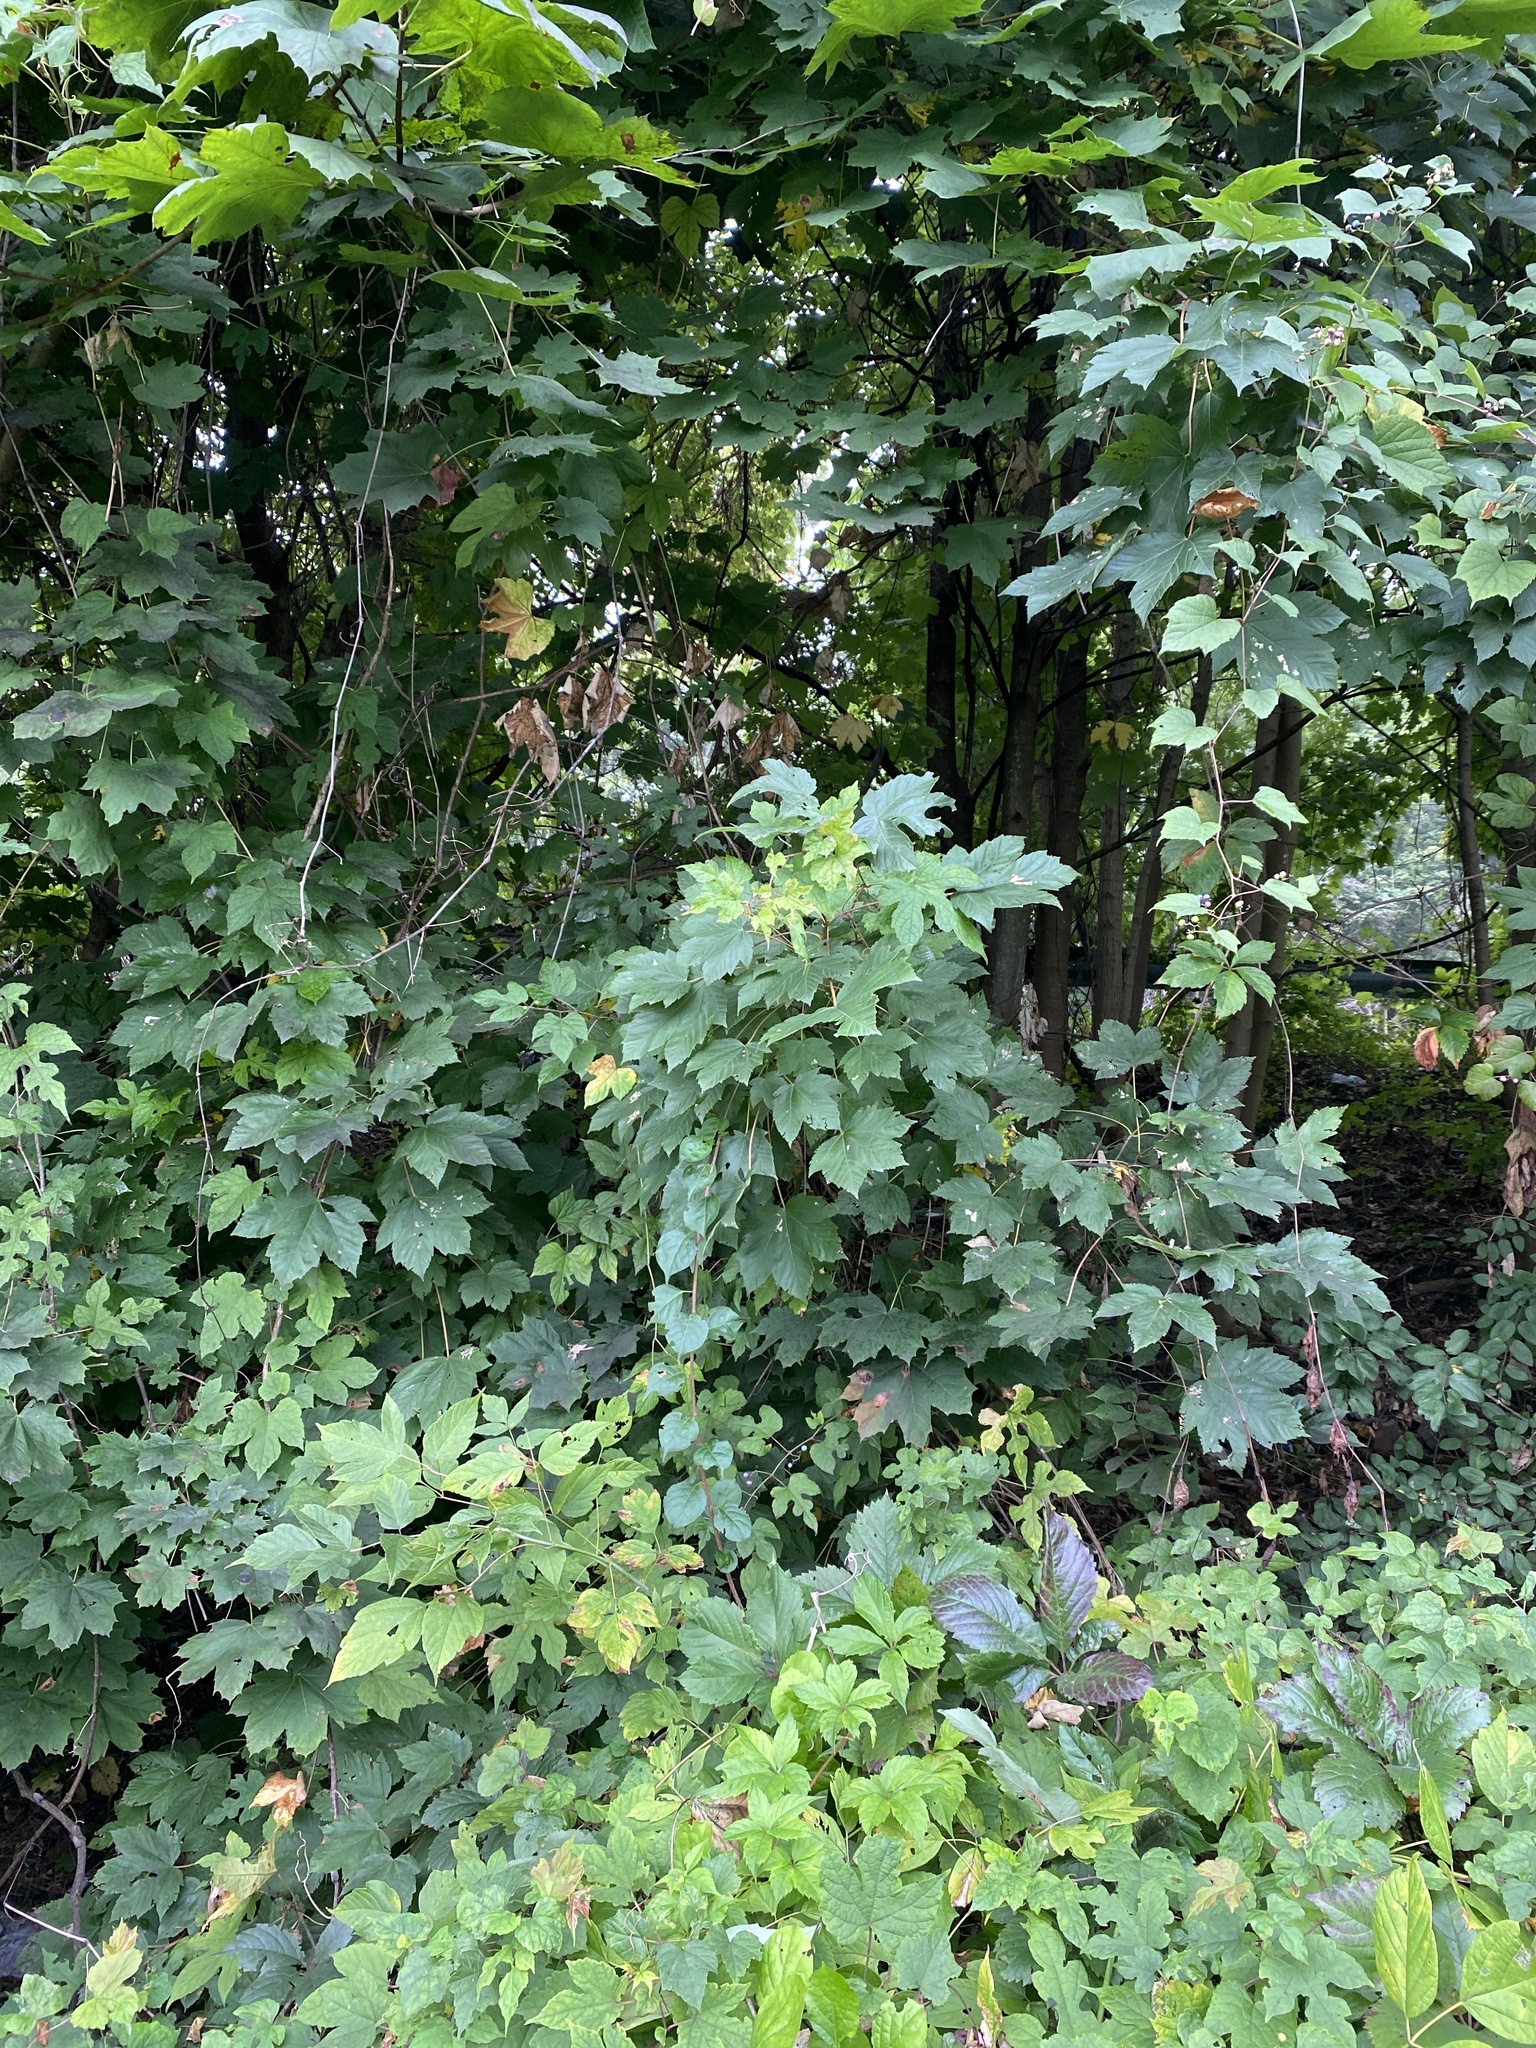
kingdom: Plantae
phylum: Tracheophyta
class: Magnoliopsida
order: Sapindales
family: Sapindaceae
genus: Acer
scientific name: Acer pseudoplatanus
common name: Sycamore
